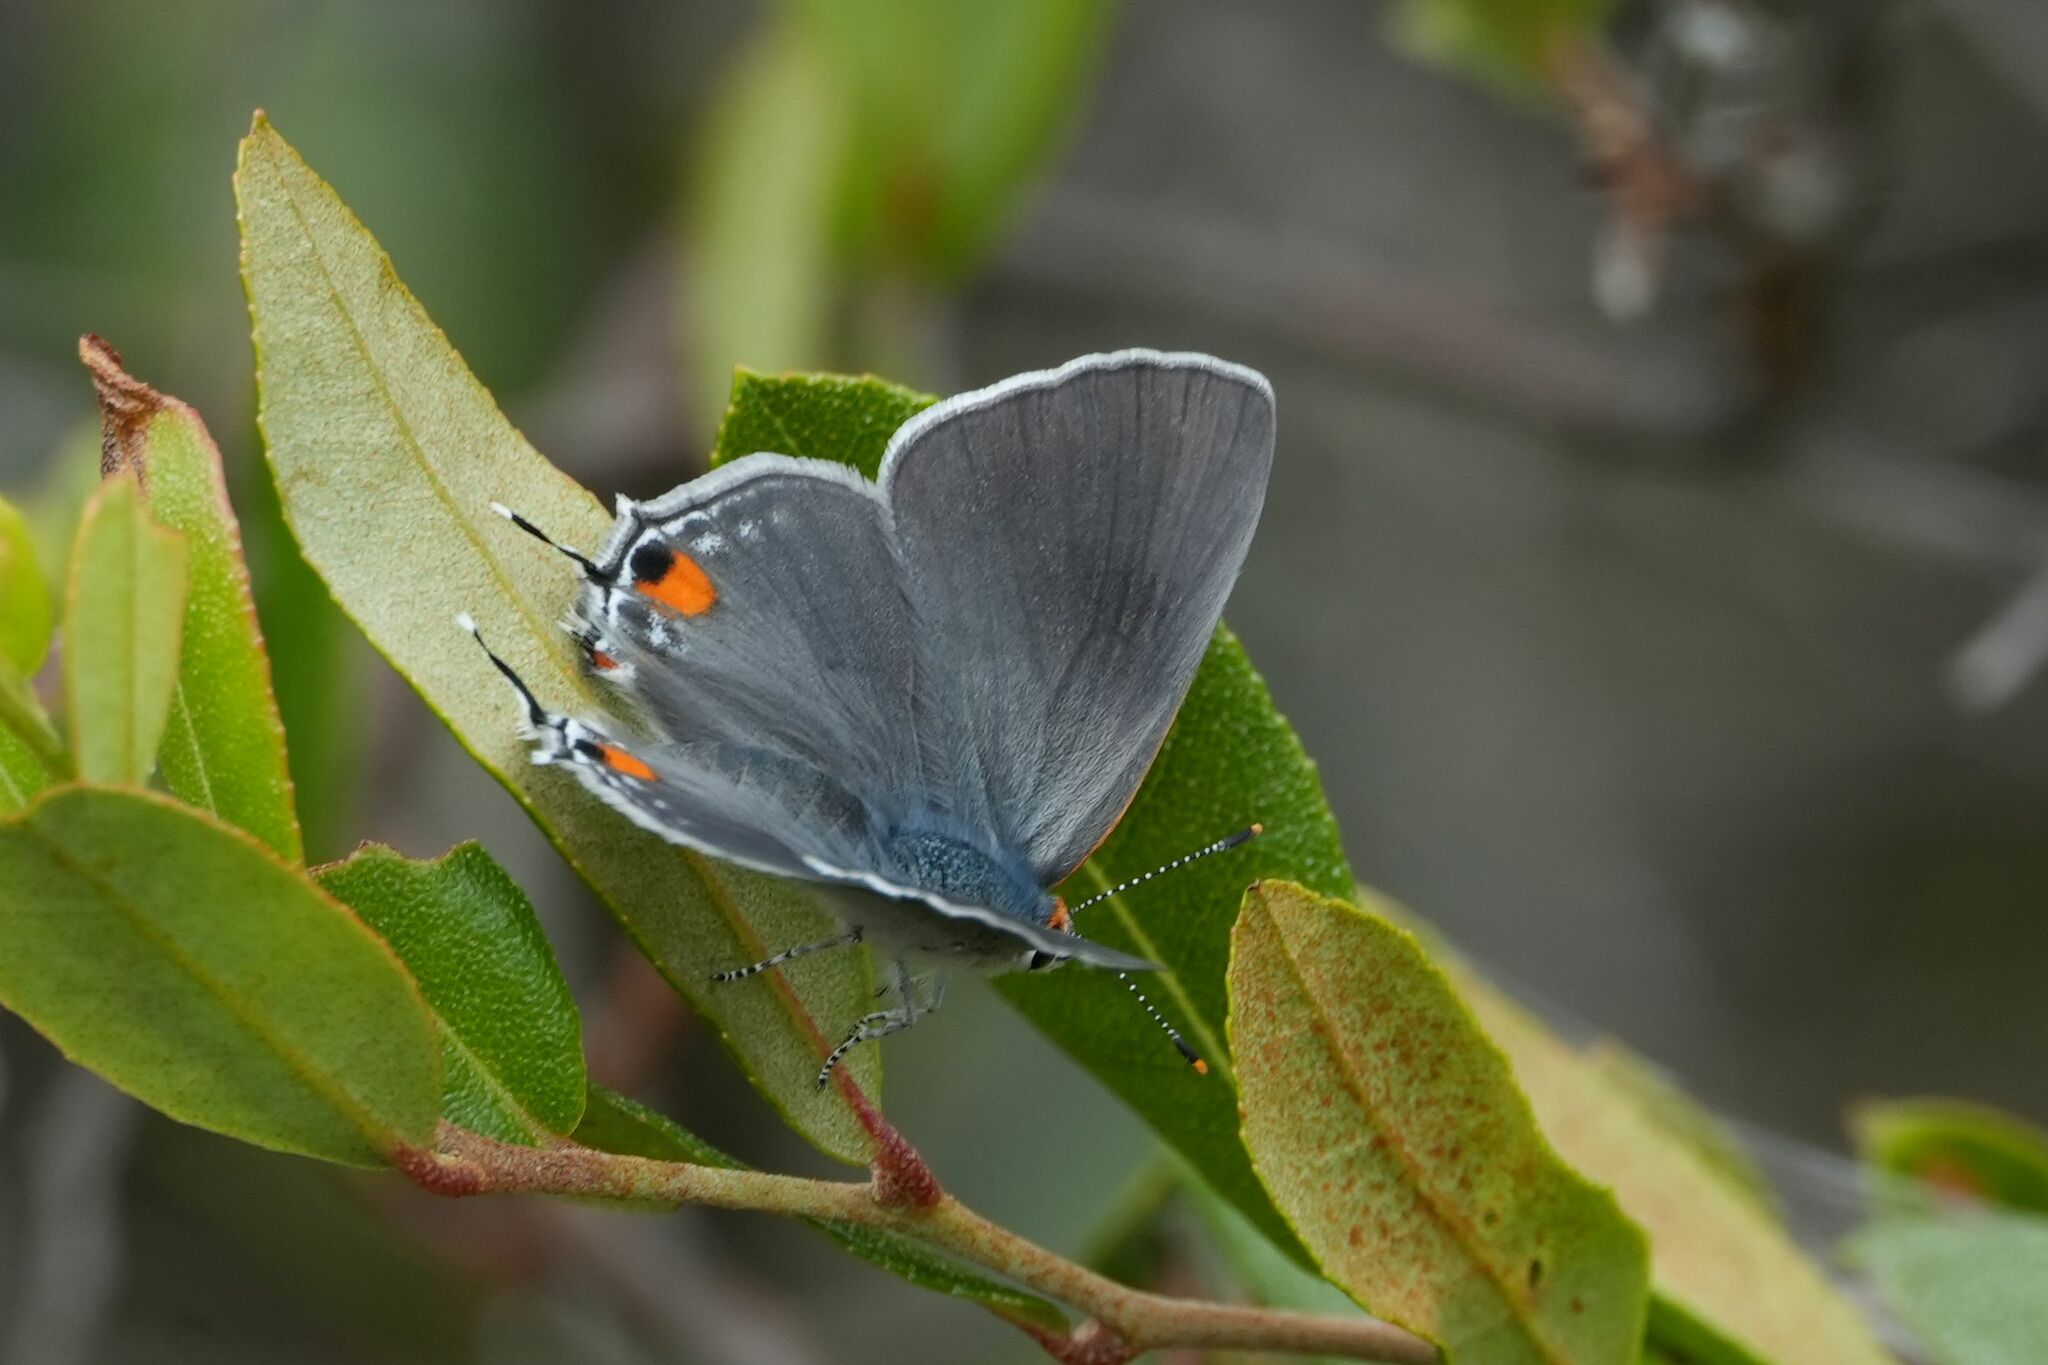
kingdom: Animalia
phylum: Arthropoda
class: Insecta
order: Lepidoptera
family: Lycaenidae
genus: Strymon
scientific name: Strymon melinus
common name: Gray hairstreak
